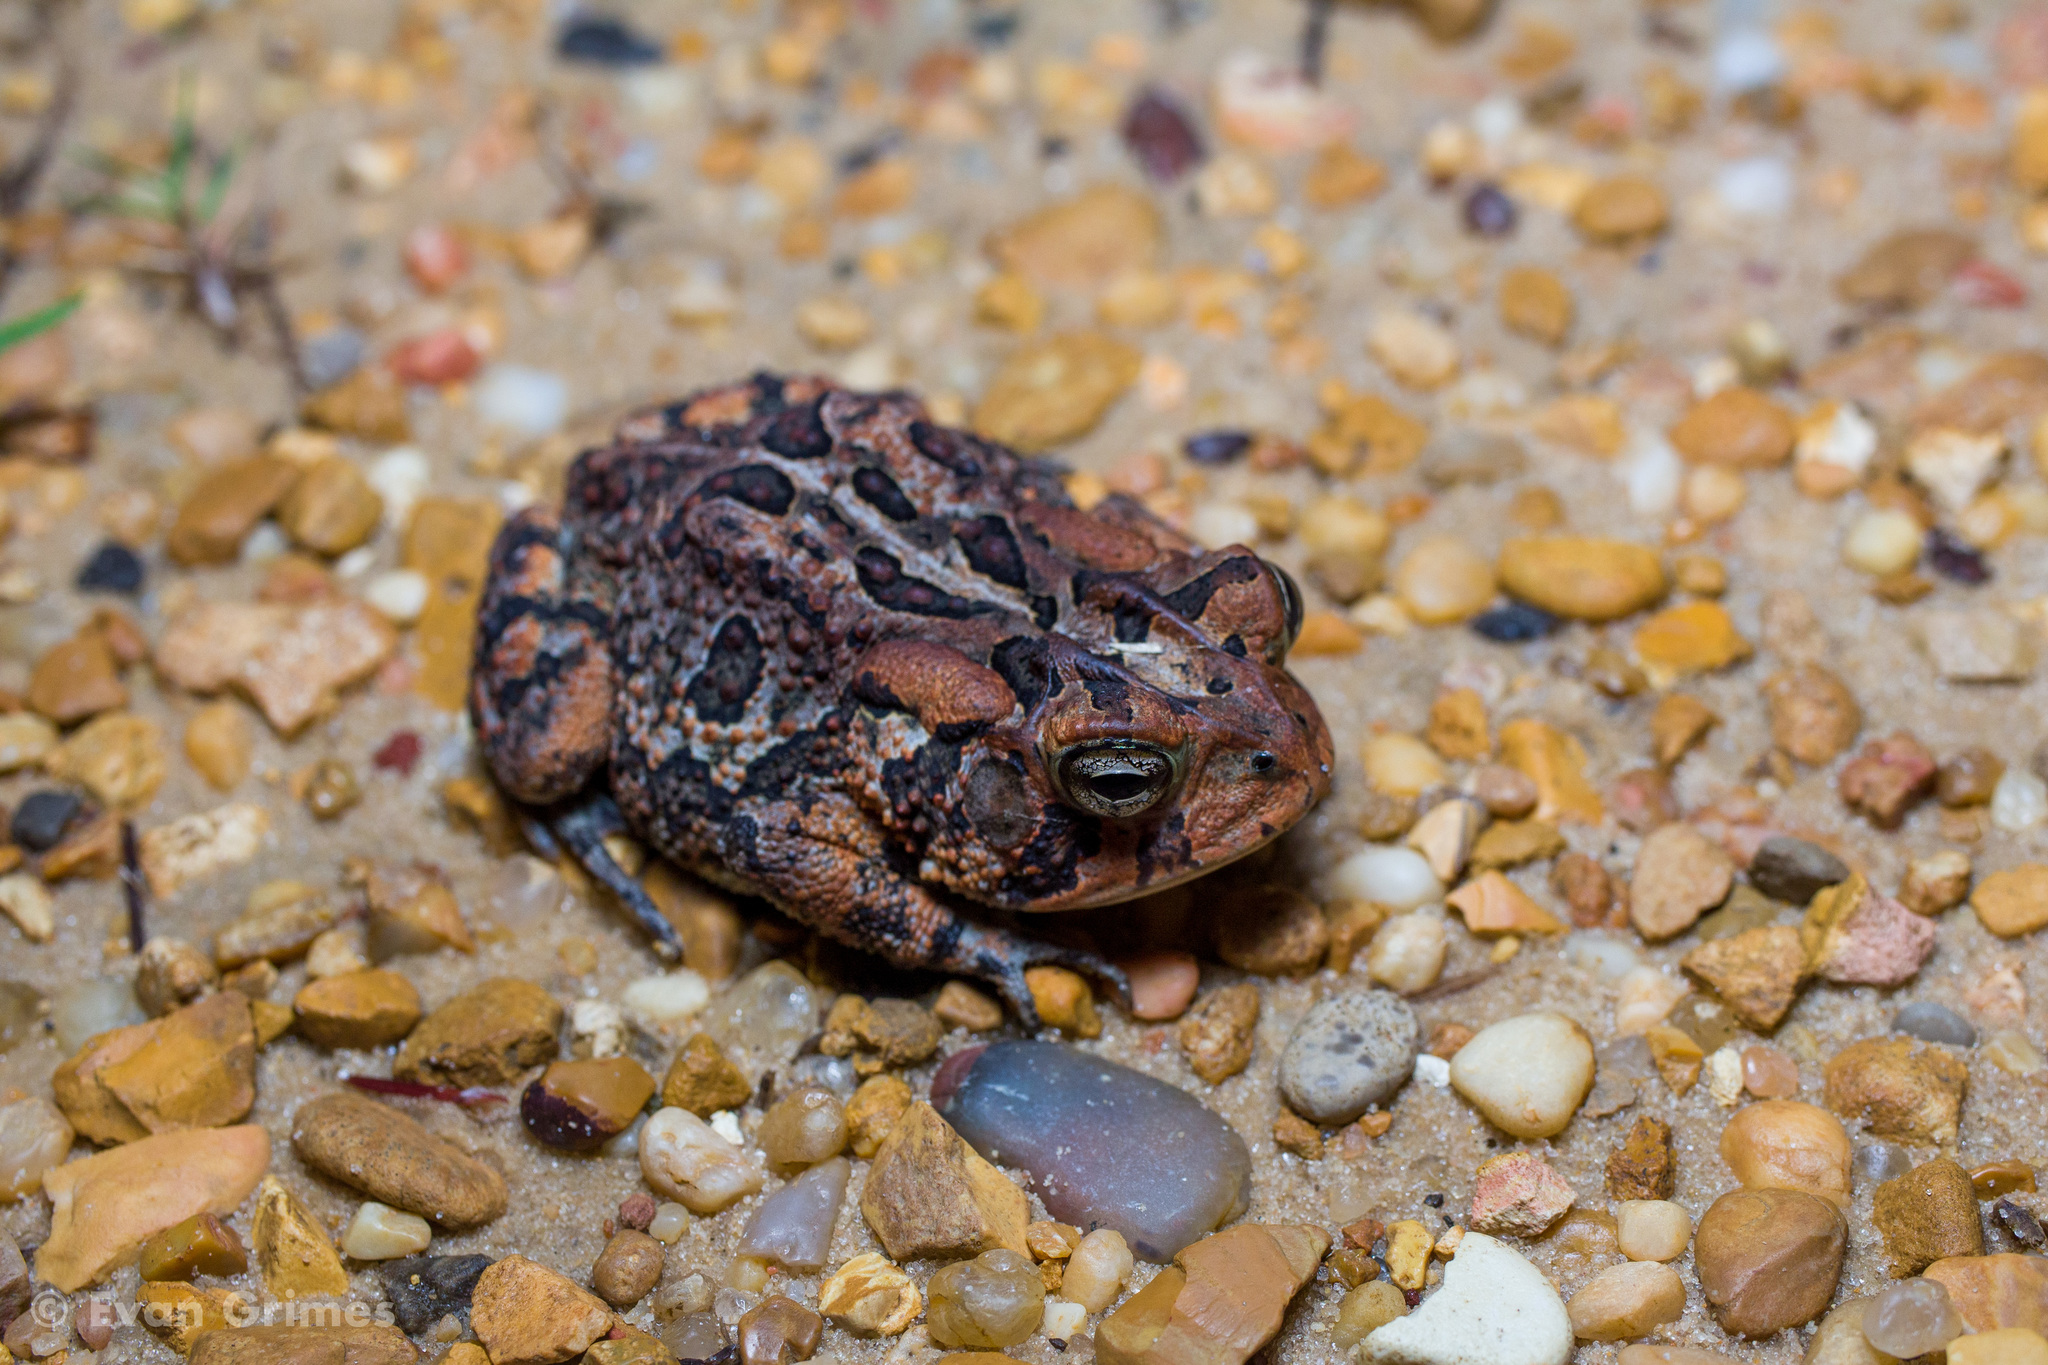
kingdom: Animalia
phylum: Chordata
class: Amphibia
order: Anura
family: Bufonidae
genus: Anaxyrus
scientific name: Anaxyrus terrestris
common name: Southern toad
